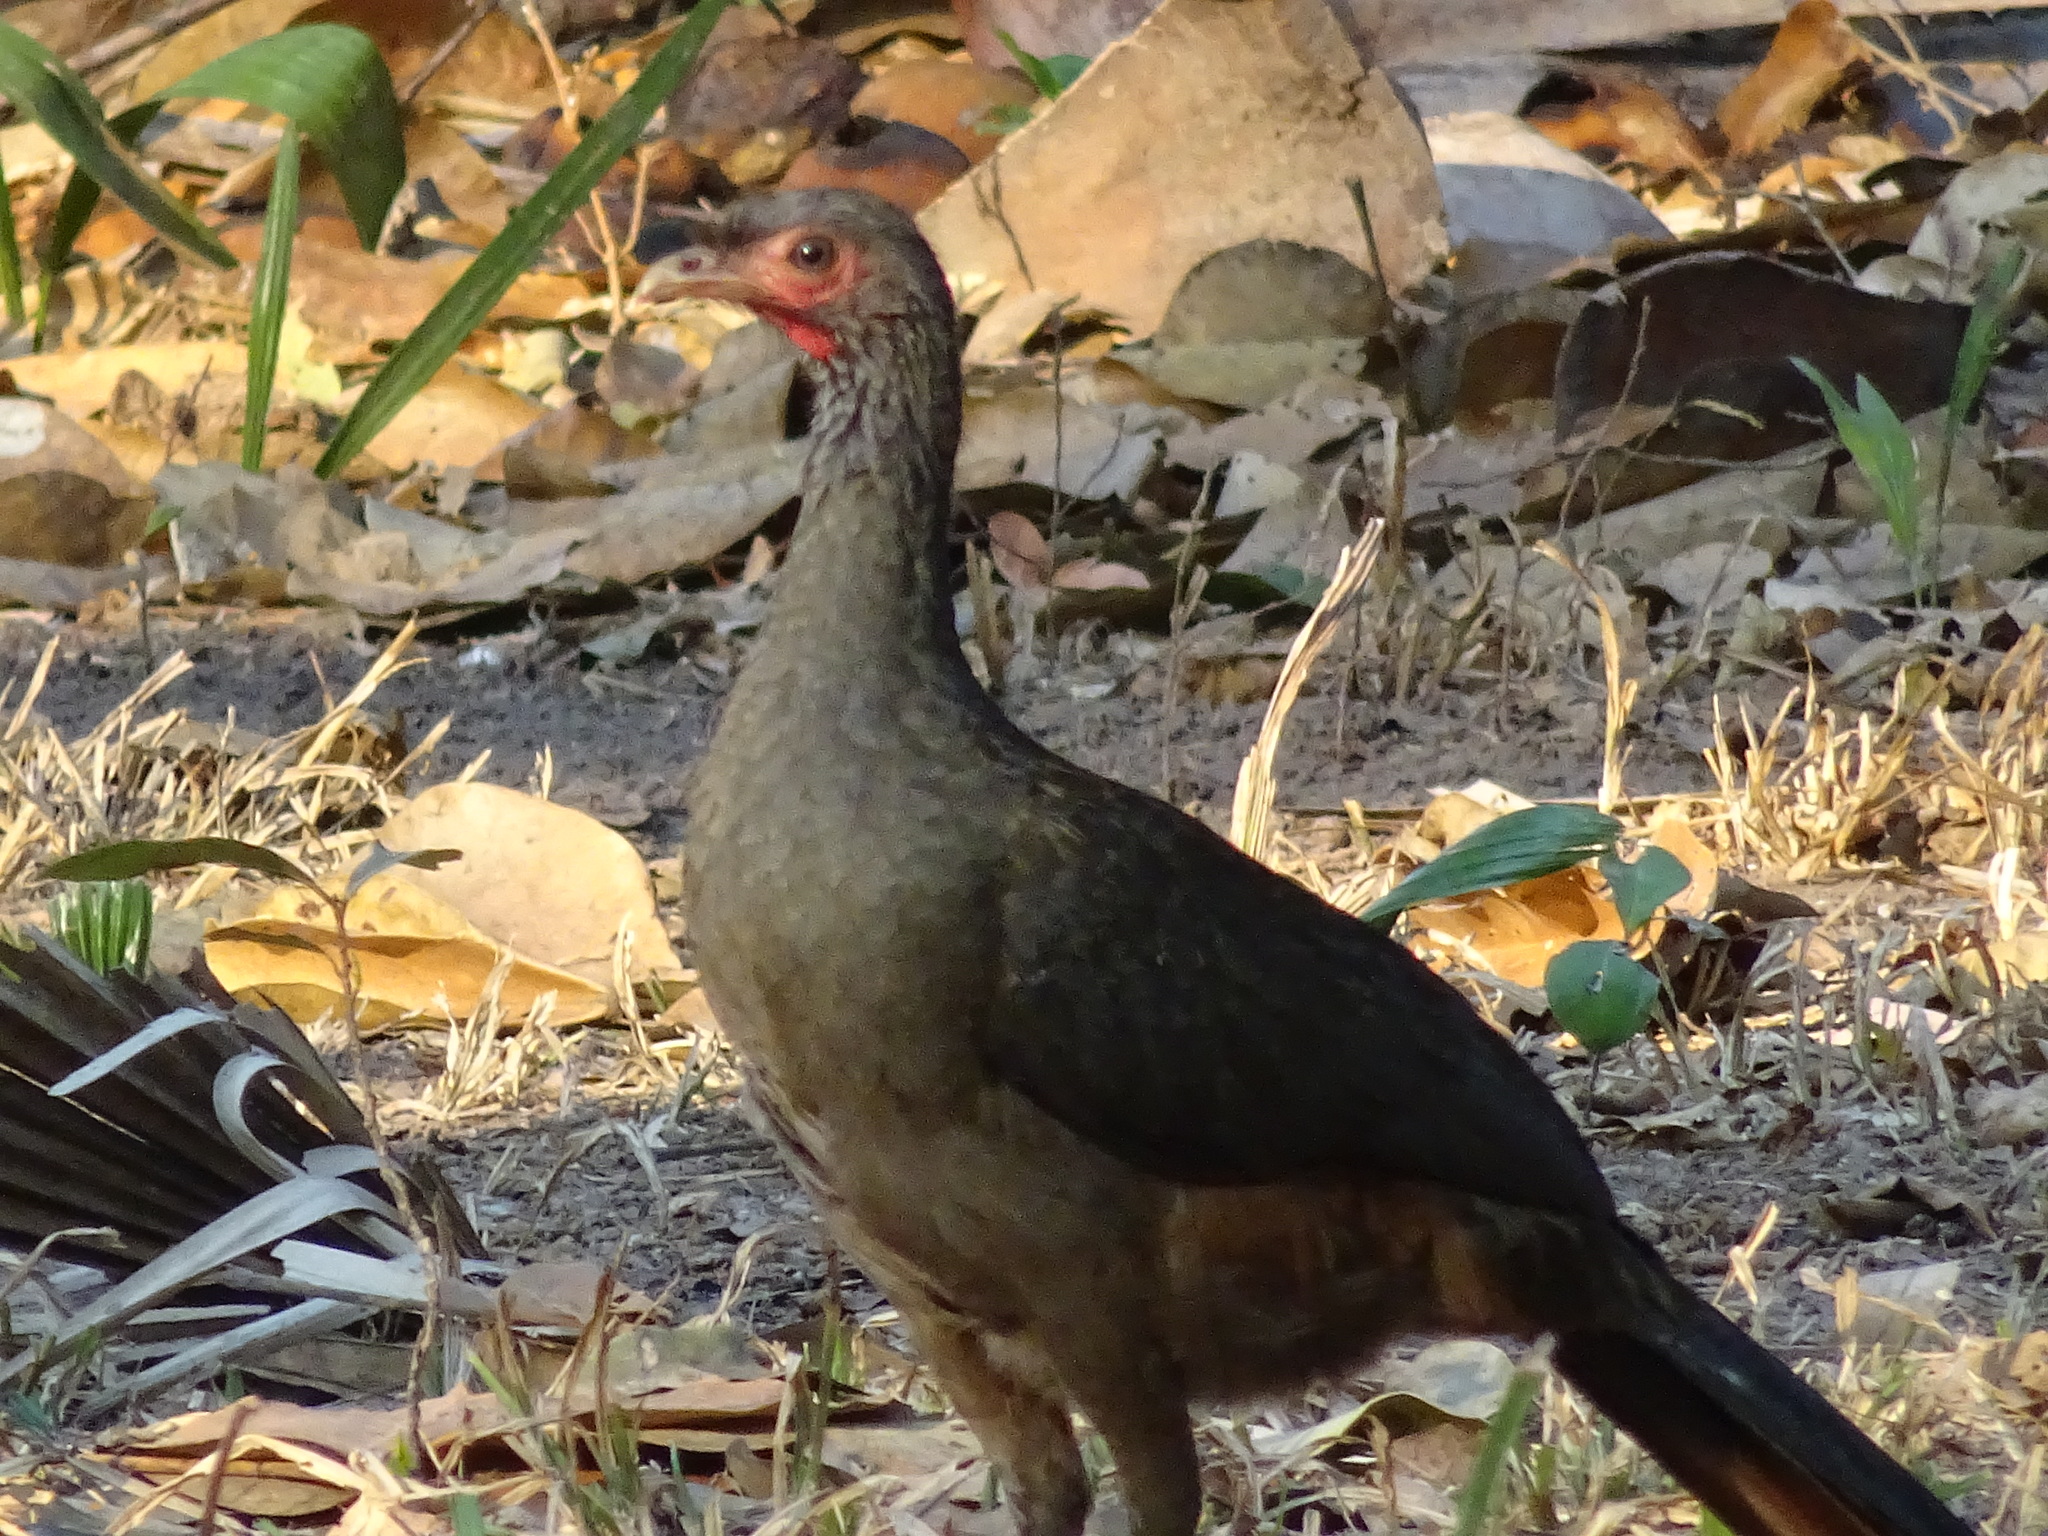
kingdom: Animalia
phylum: Chordata
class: Aves
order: Galliformes
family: Cracidae
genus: Ortalis
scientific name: Ortalis canicollis
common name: Chaco chachalaca
